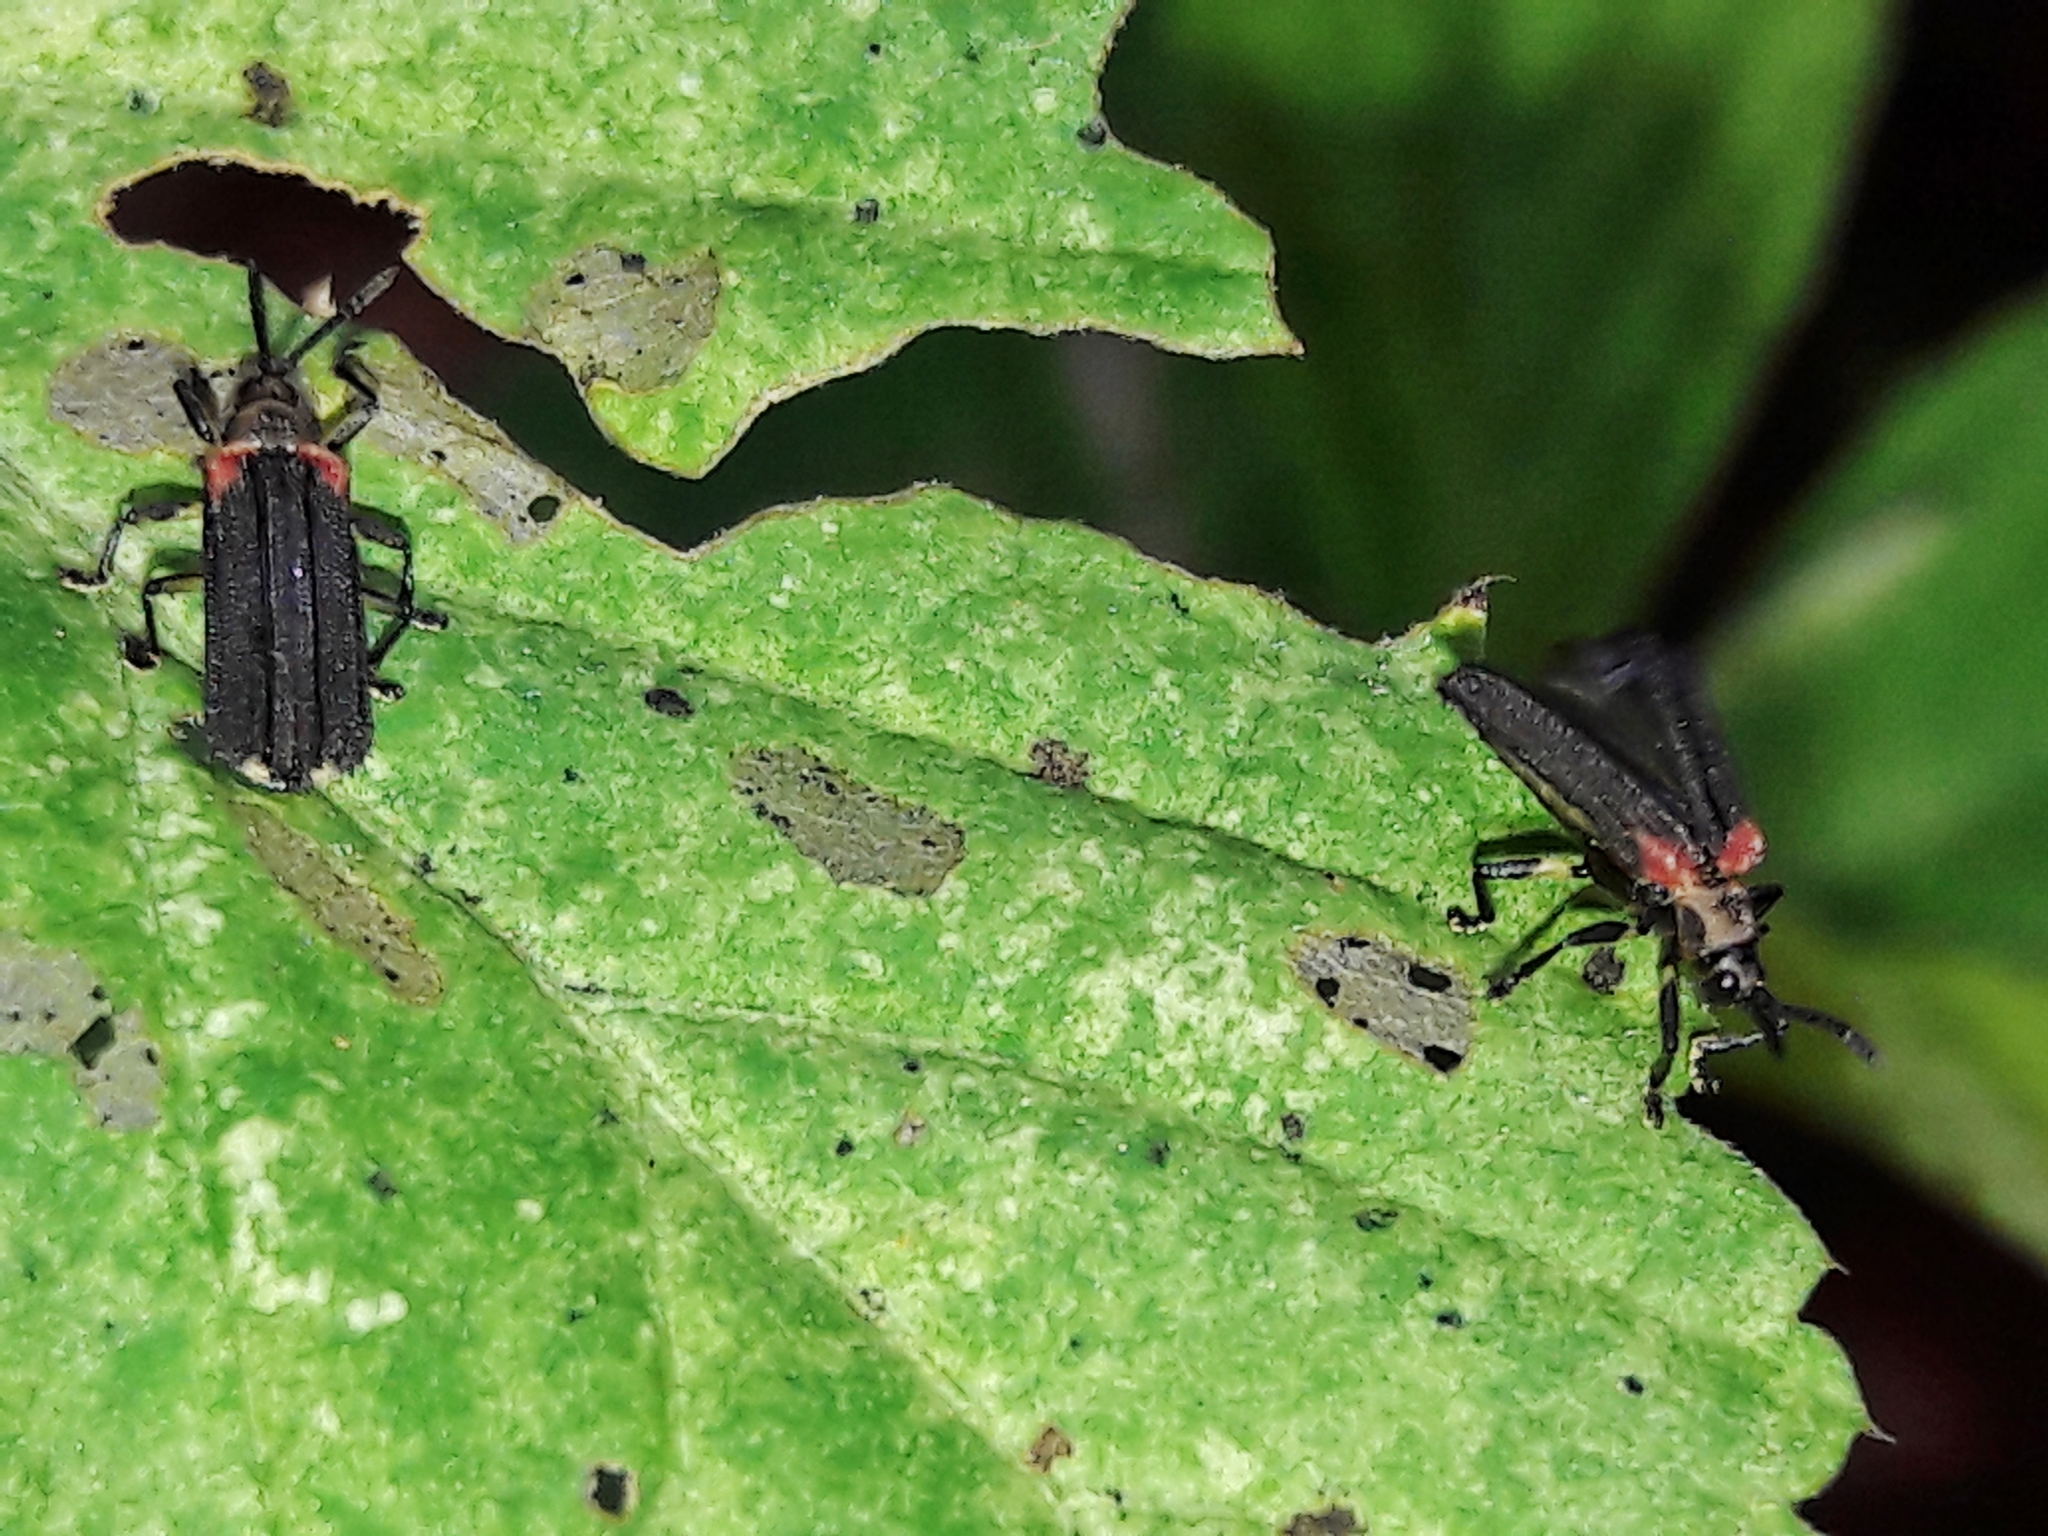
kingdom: Animalia
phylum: Arthropoda
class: Insecta
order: Coleoptera
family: Chrysomelidae
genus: Heterispa
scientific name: Heterispa vinula
